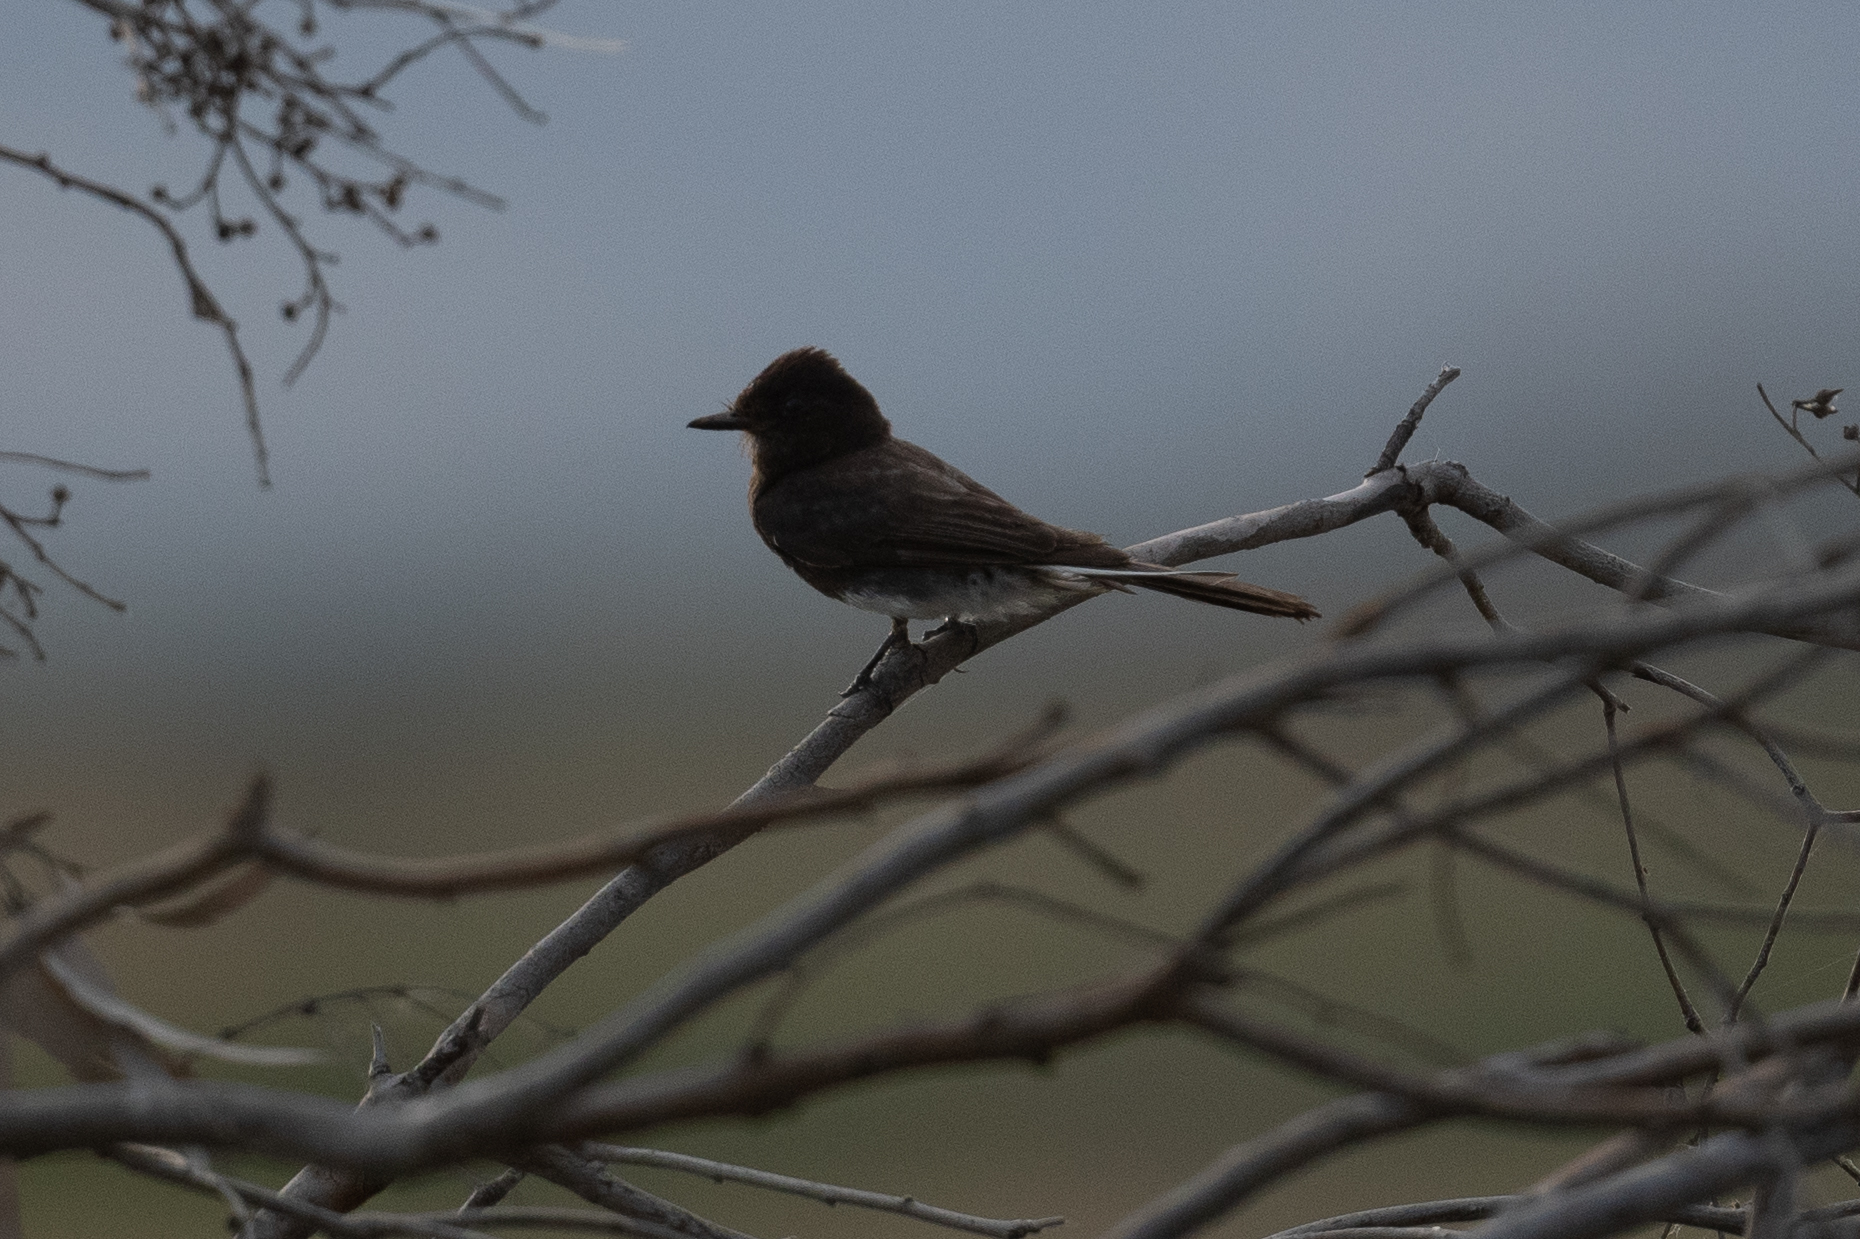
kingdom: Animalia
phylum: Chordata
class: Aves
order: Passeriformes
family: Tyrannidae
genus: Sayornis
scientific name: Sayornis nigricans
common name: Black phoebe
